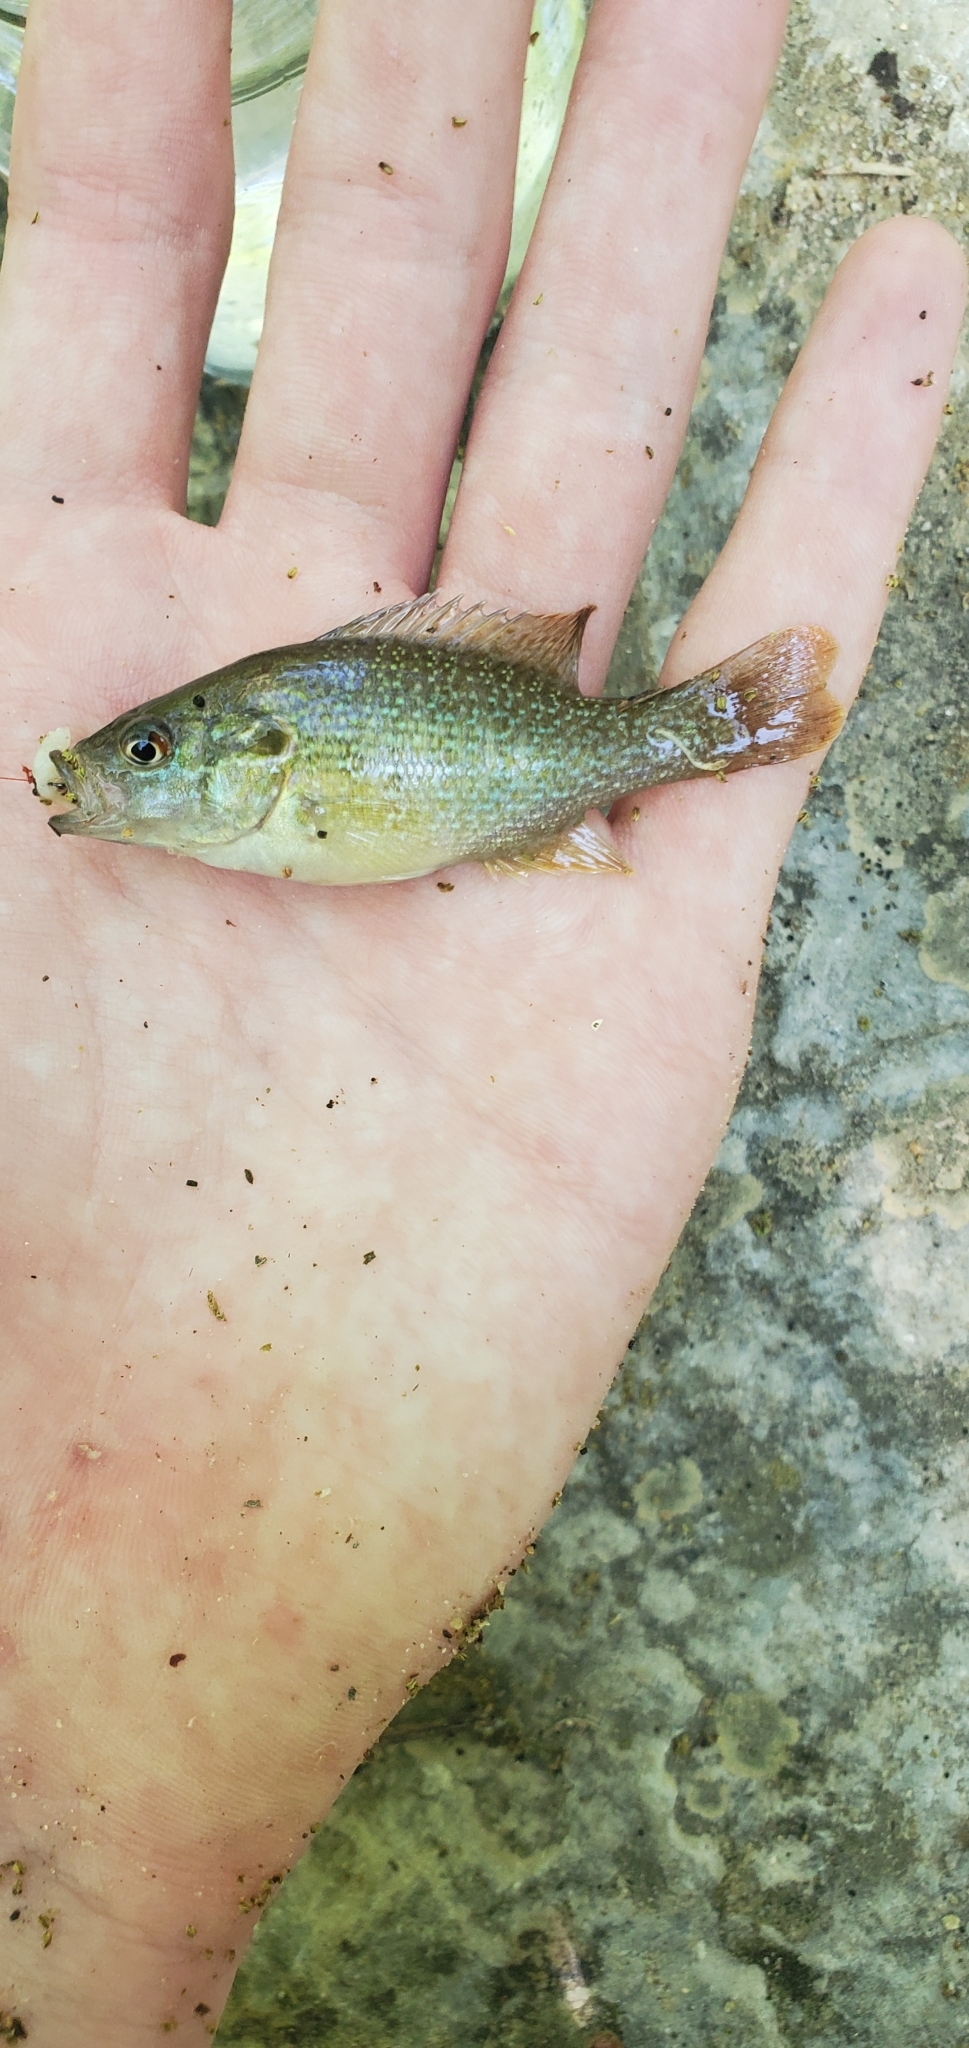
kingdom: Animalia
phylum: Chordata
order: Perciformes
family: Centrarchidae
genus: Lepomis
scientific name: Lepomis cyanellus
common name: Green sunfish
